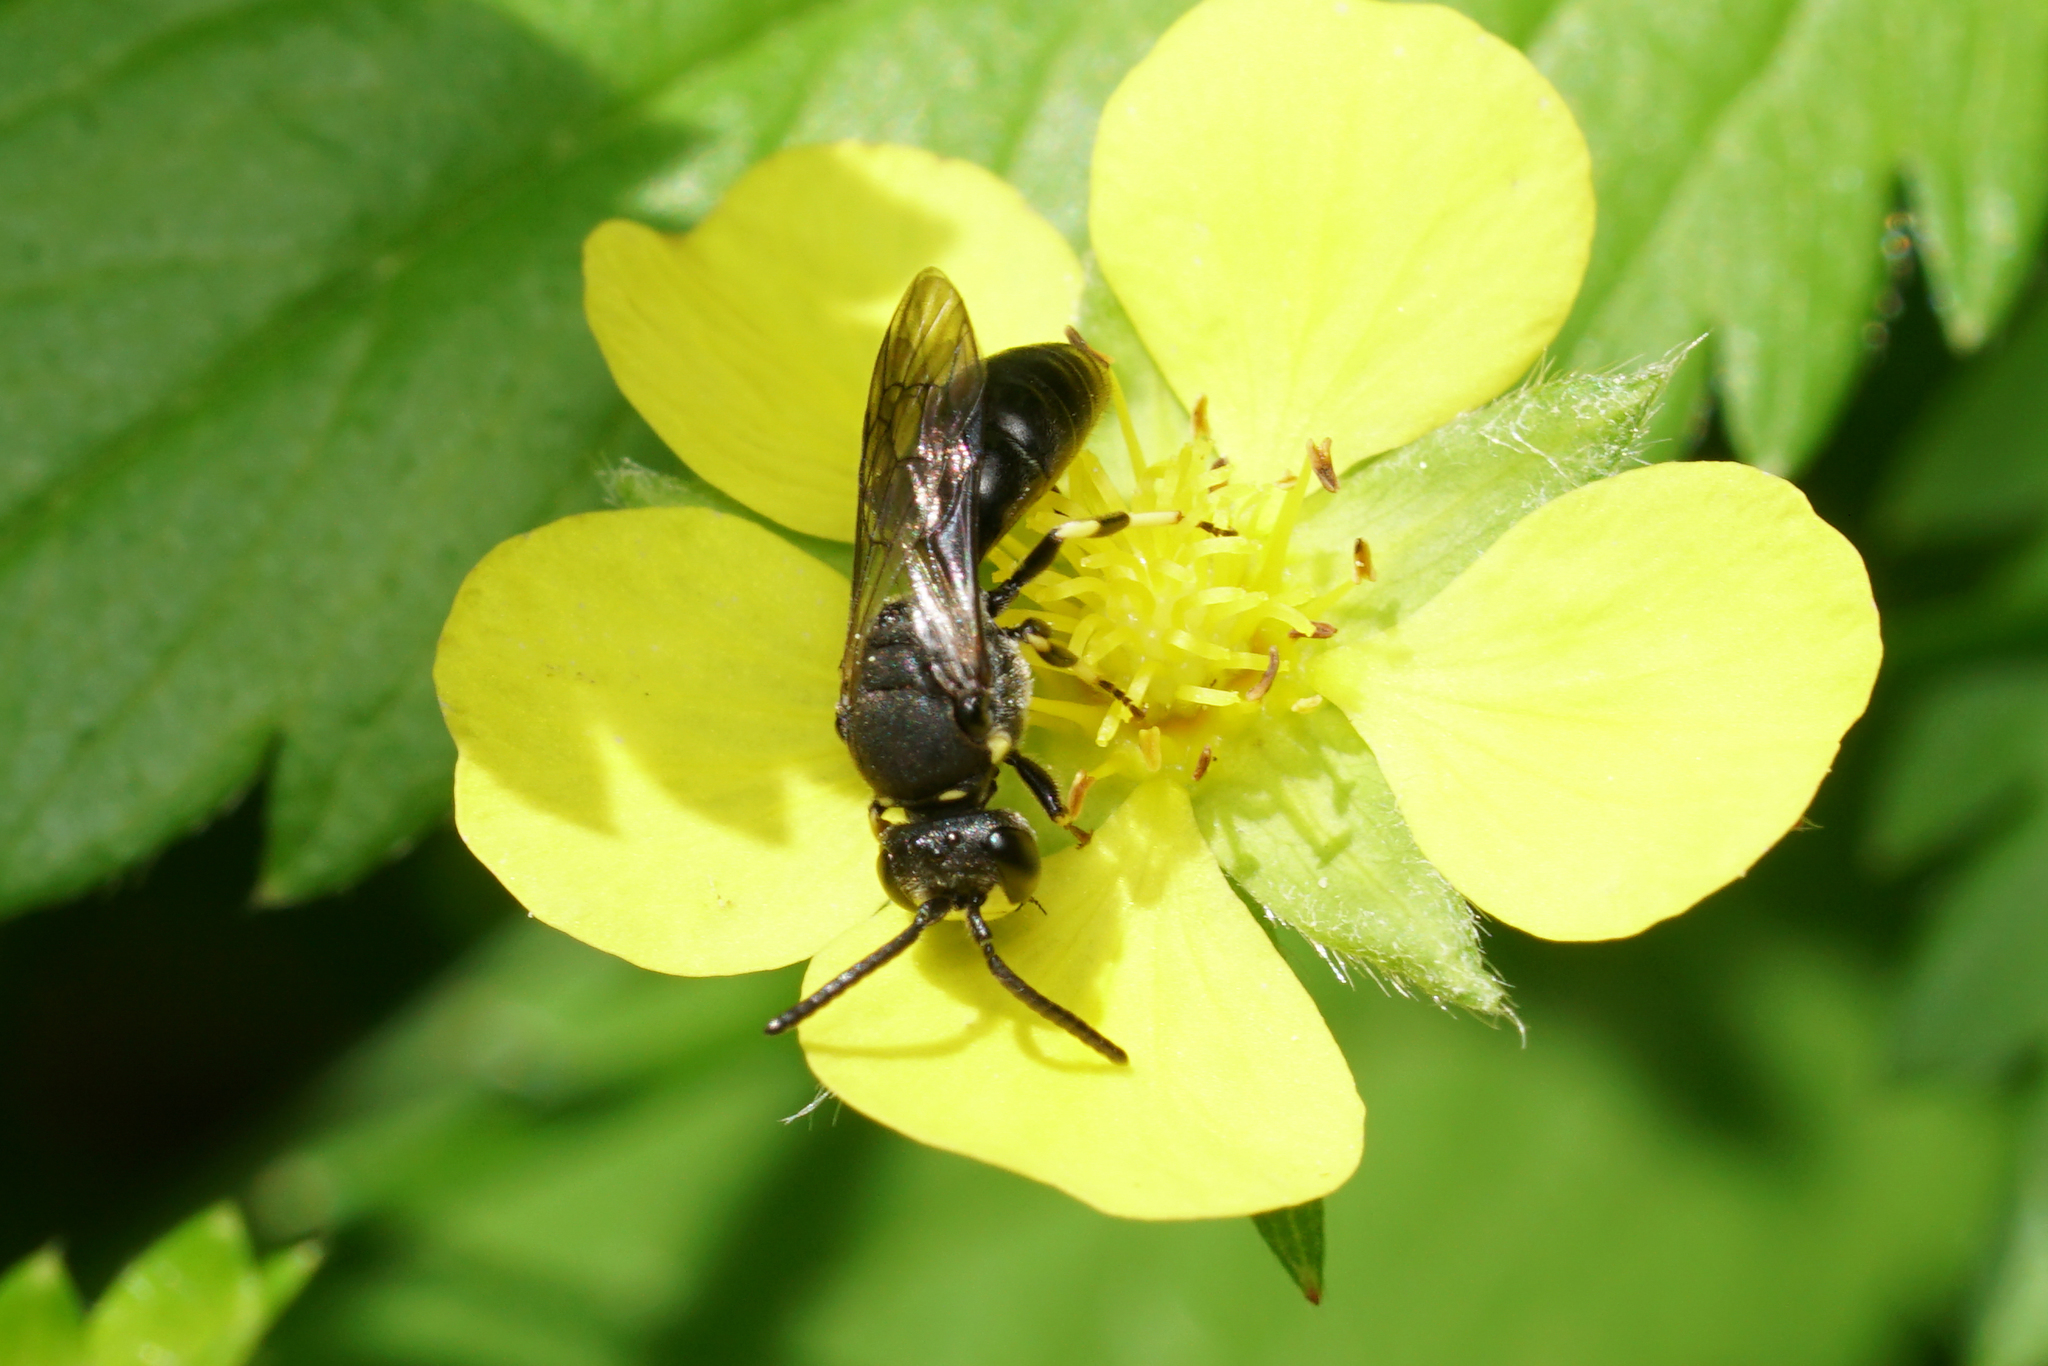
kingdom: Animalia
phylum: Arthropoda
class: Insecta
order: Hymenoptera
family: Colletidae
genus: Hylaeus
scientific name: Hylaeus modestus
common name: Yellow-faced bee
